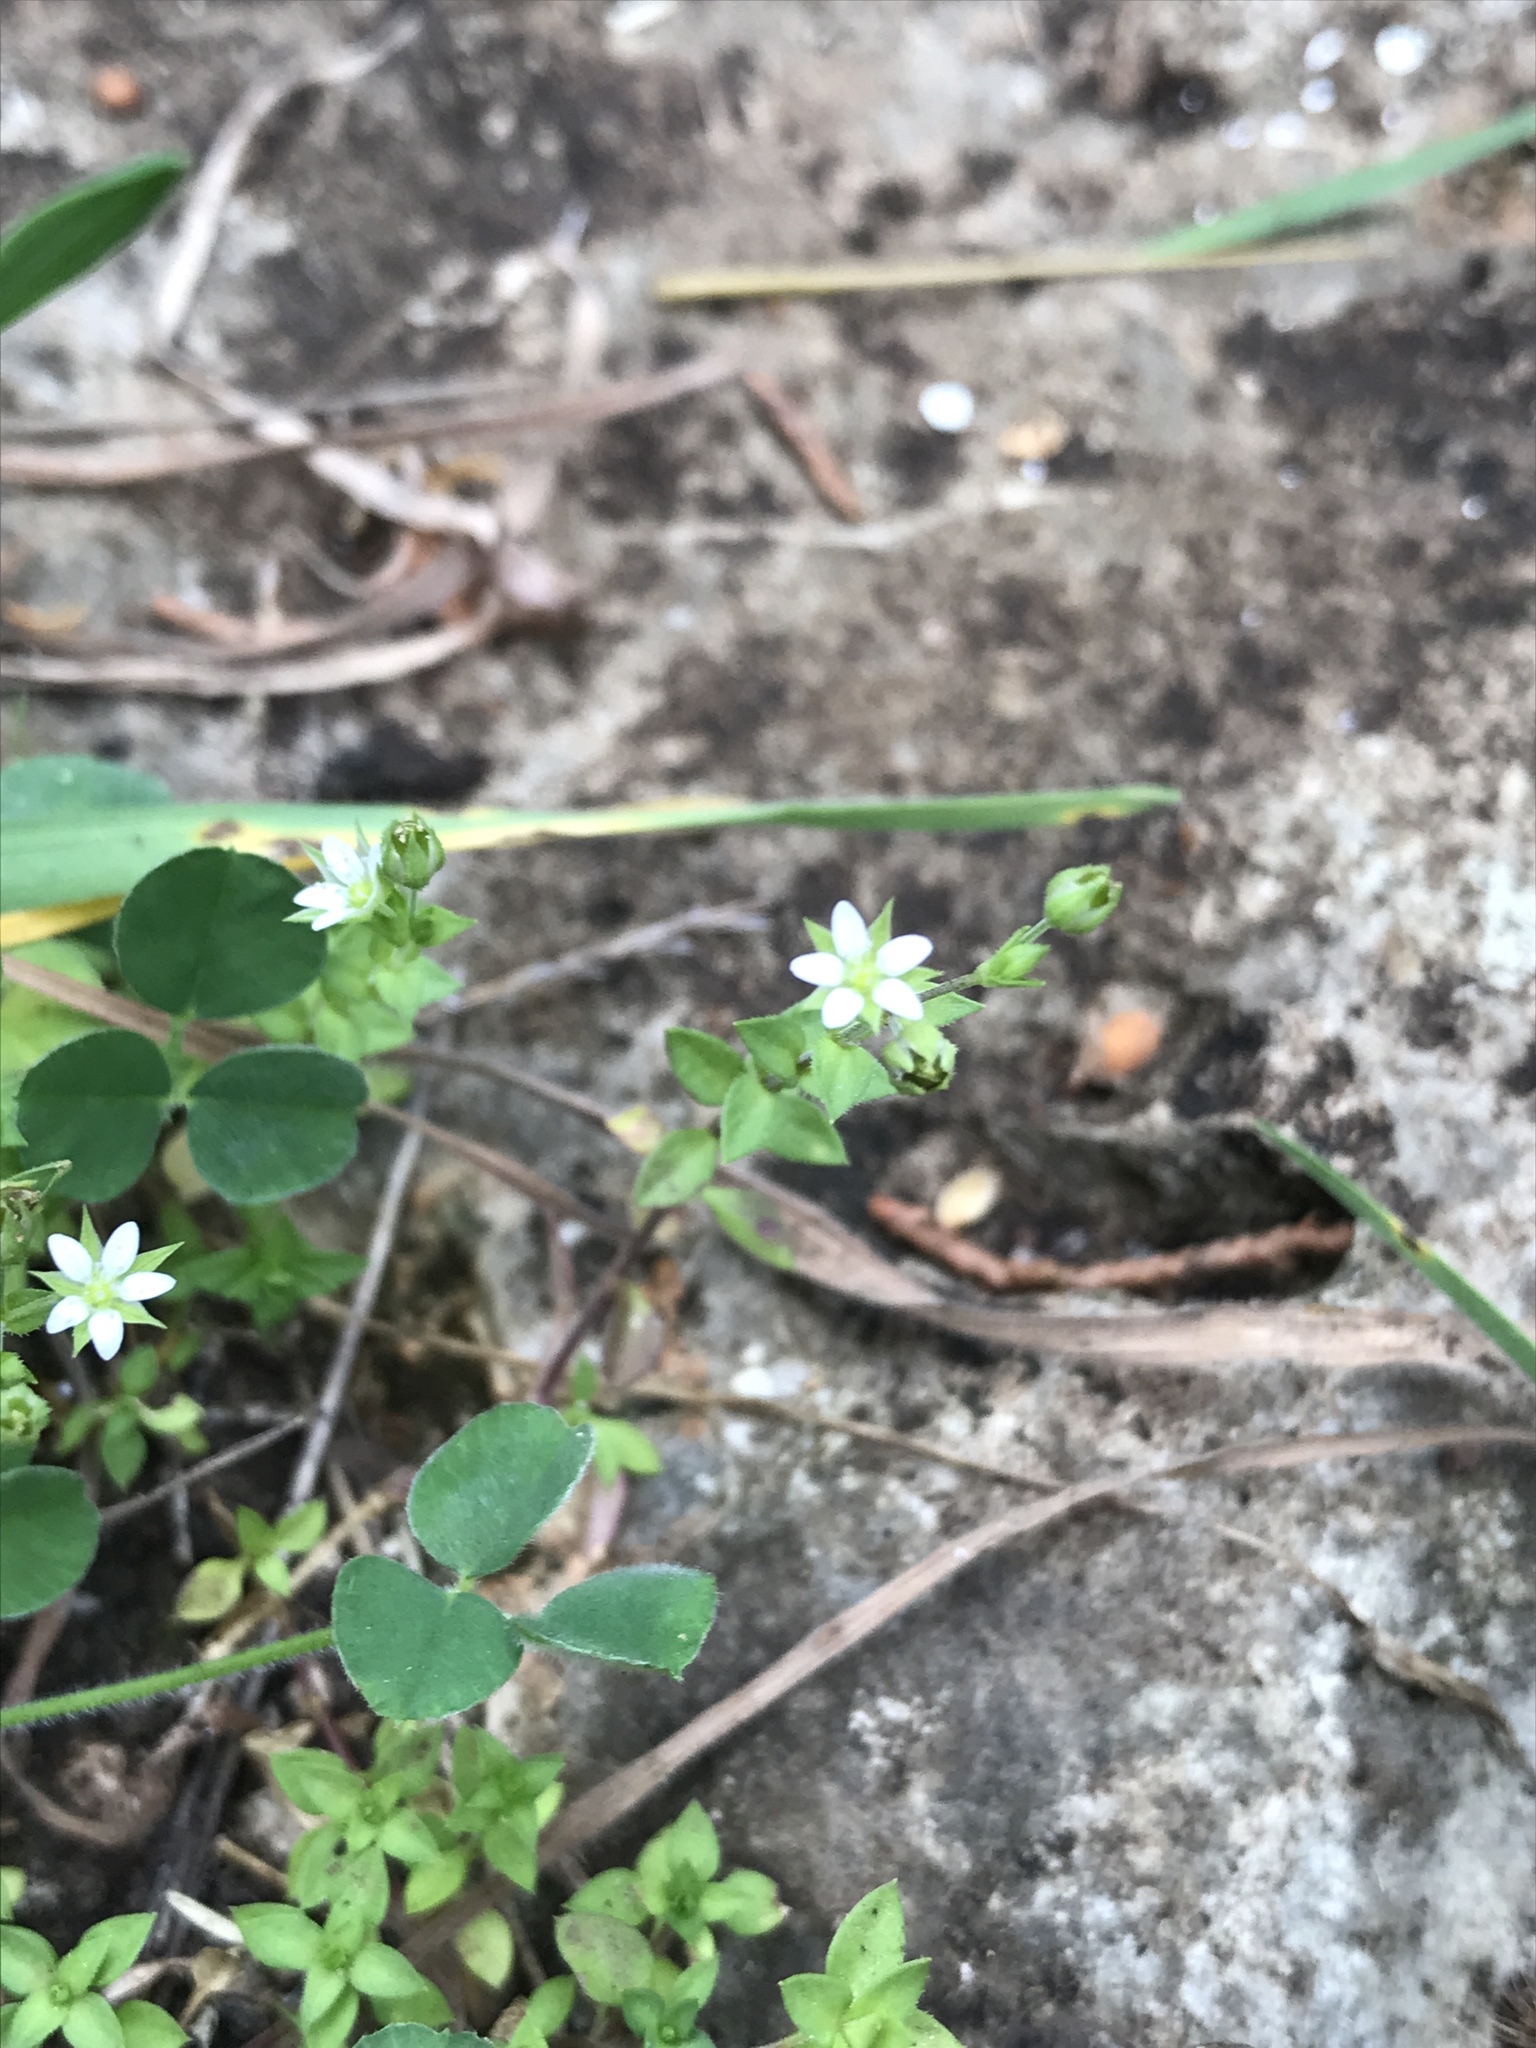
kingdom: Plantae
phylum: Tracheophyta
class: Magnoliopsida
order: Caryophyllales
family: Caryophyllaceae
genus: Arenaria
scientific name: Arenaria serpyllifolia
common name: Thyme-leaved sandwort
